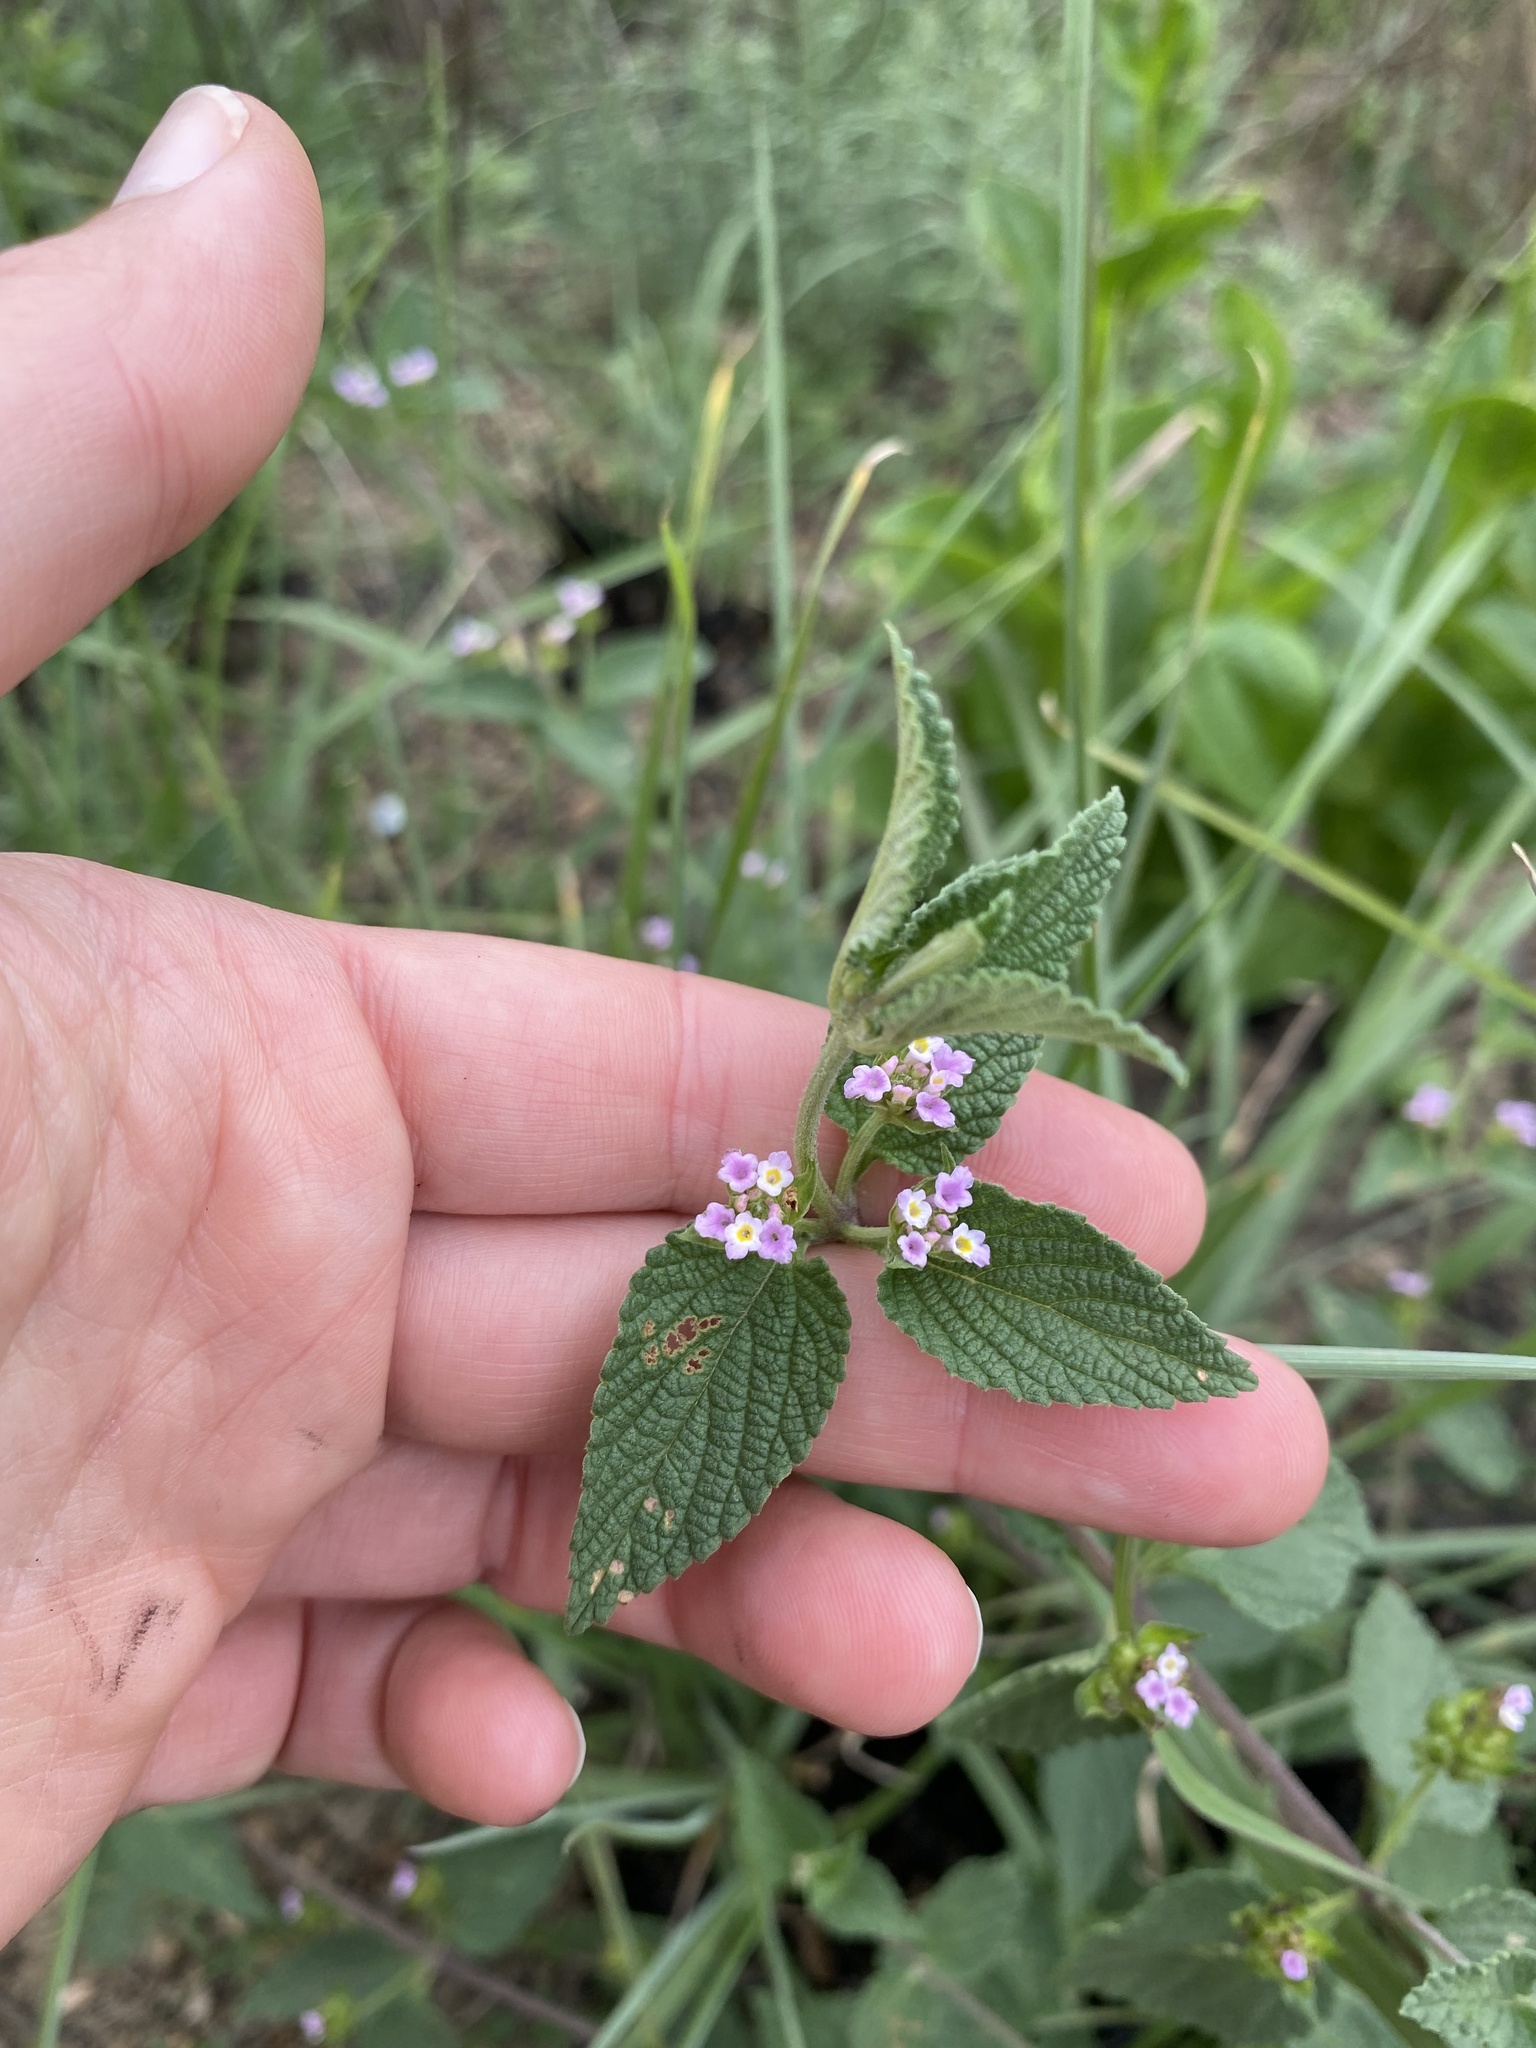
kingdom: Plantae
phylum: Tracheophyta
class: Magnoliopsida
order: Lamiales
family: Verbenaceae
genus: Lantana
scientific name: Lantana rugosa
